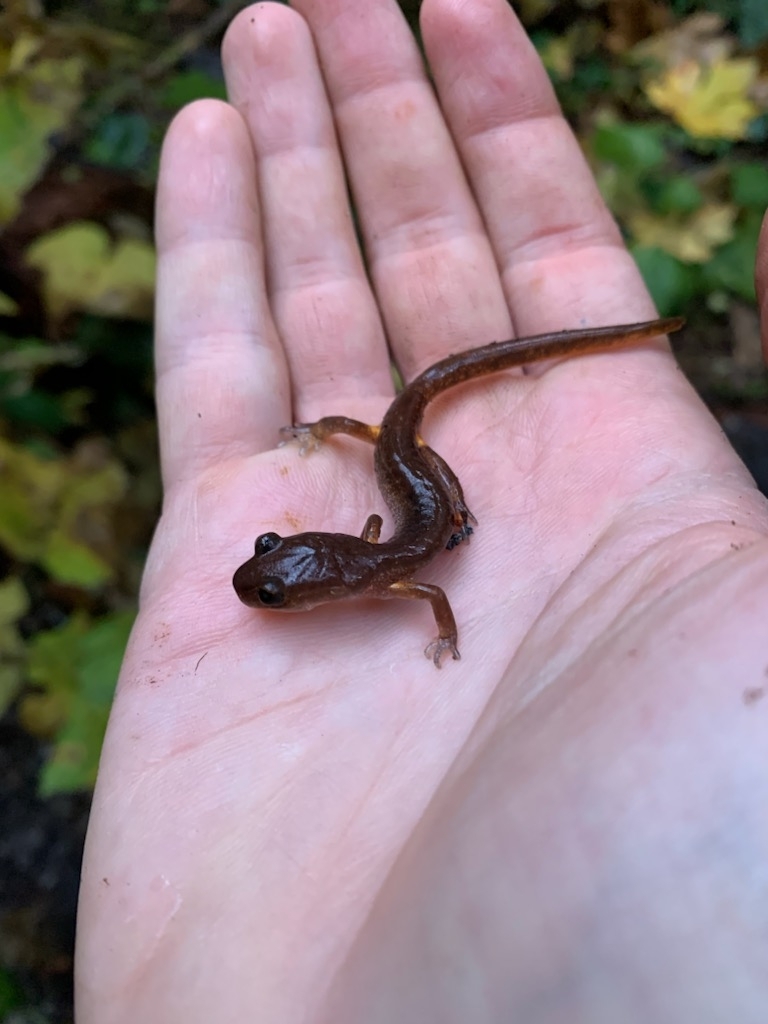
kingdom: Animalia
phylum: Chordata
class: Amphibia
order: Caudata
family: Plethodontidae
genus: Ensatina
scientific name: Ensatina eschscholtzii
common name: Ensatina
